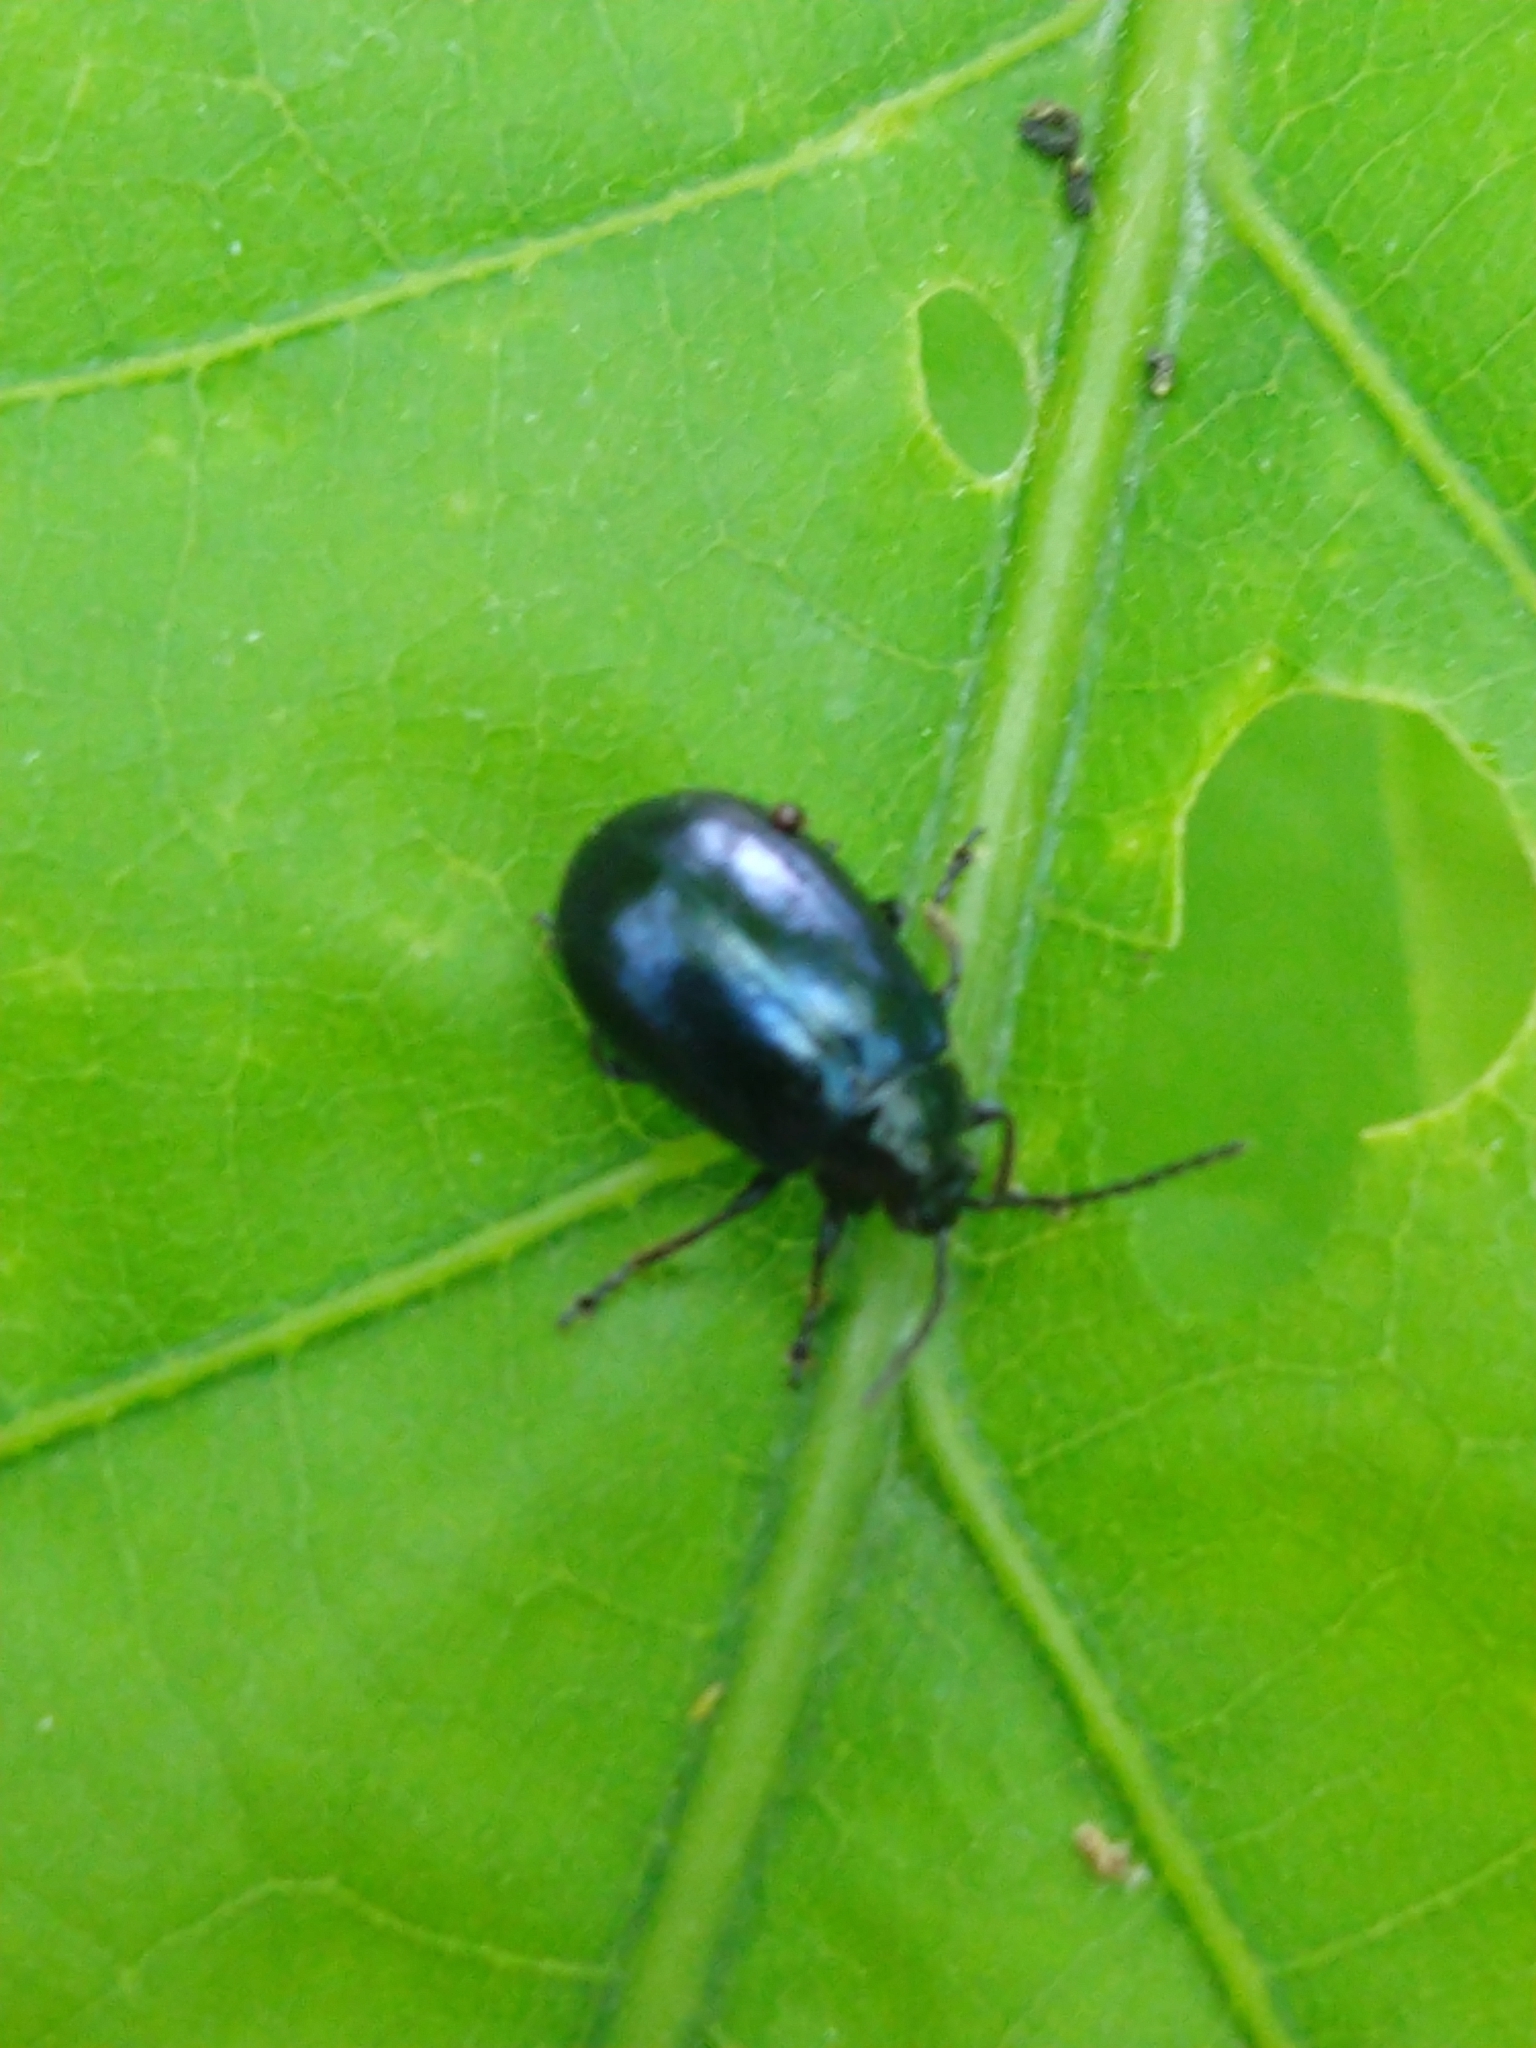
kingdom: Animalia
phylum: Arthropoda
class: Insecta
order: Coleoptera
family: Chrysomelidae
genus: Agelastica
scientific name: Agelastica alni
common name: Alder leaf beetle
